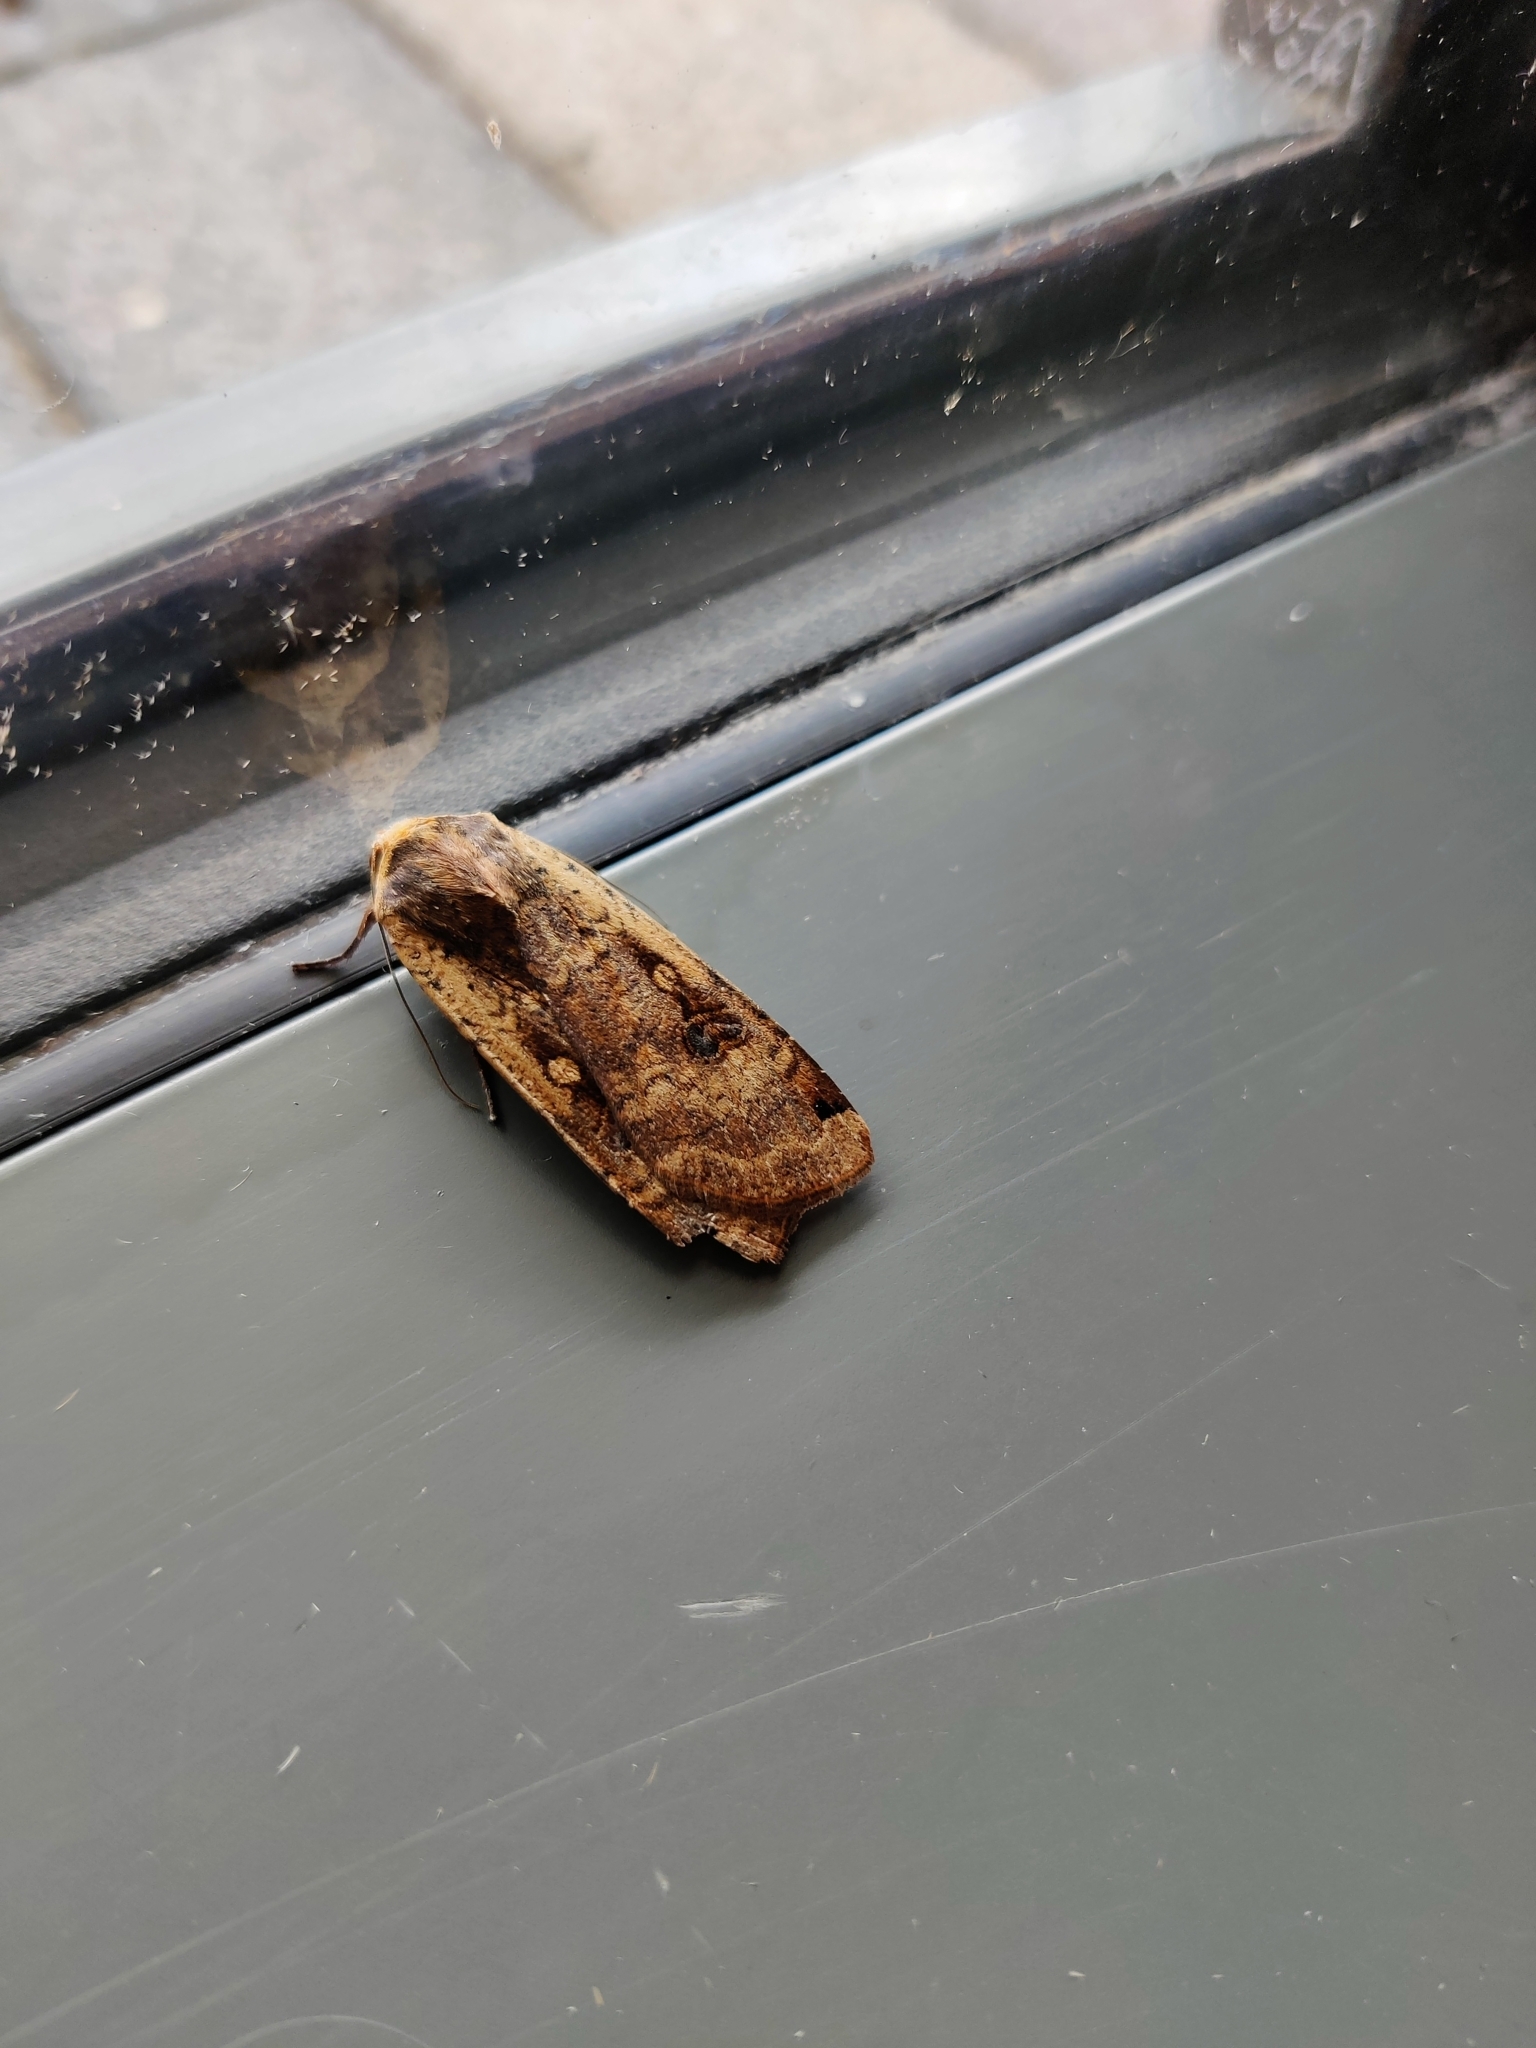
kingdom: Animalia
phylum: Arthropoda
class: Insecta
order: Lepidoptera
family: Noctuidae
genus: Noctua
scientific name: Noctua pronuba
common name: Large yellow underwing
